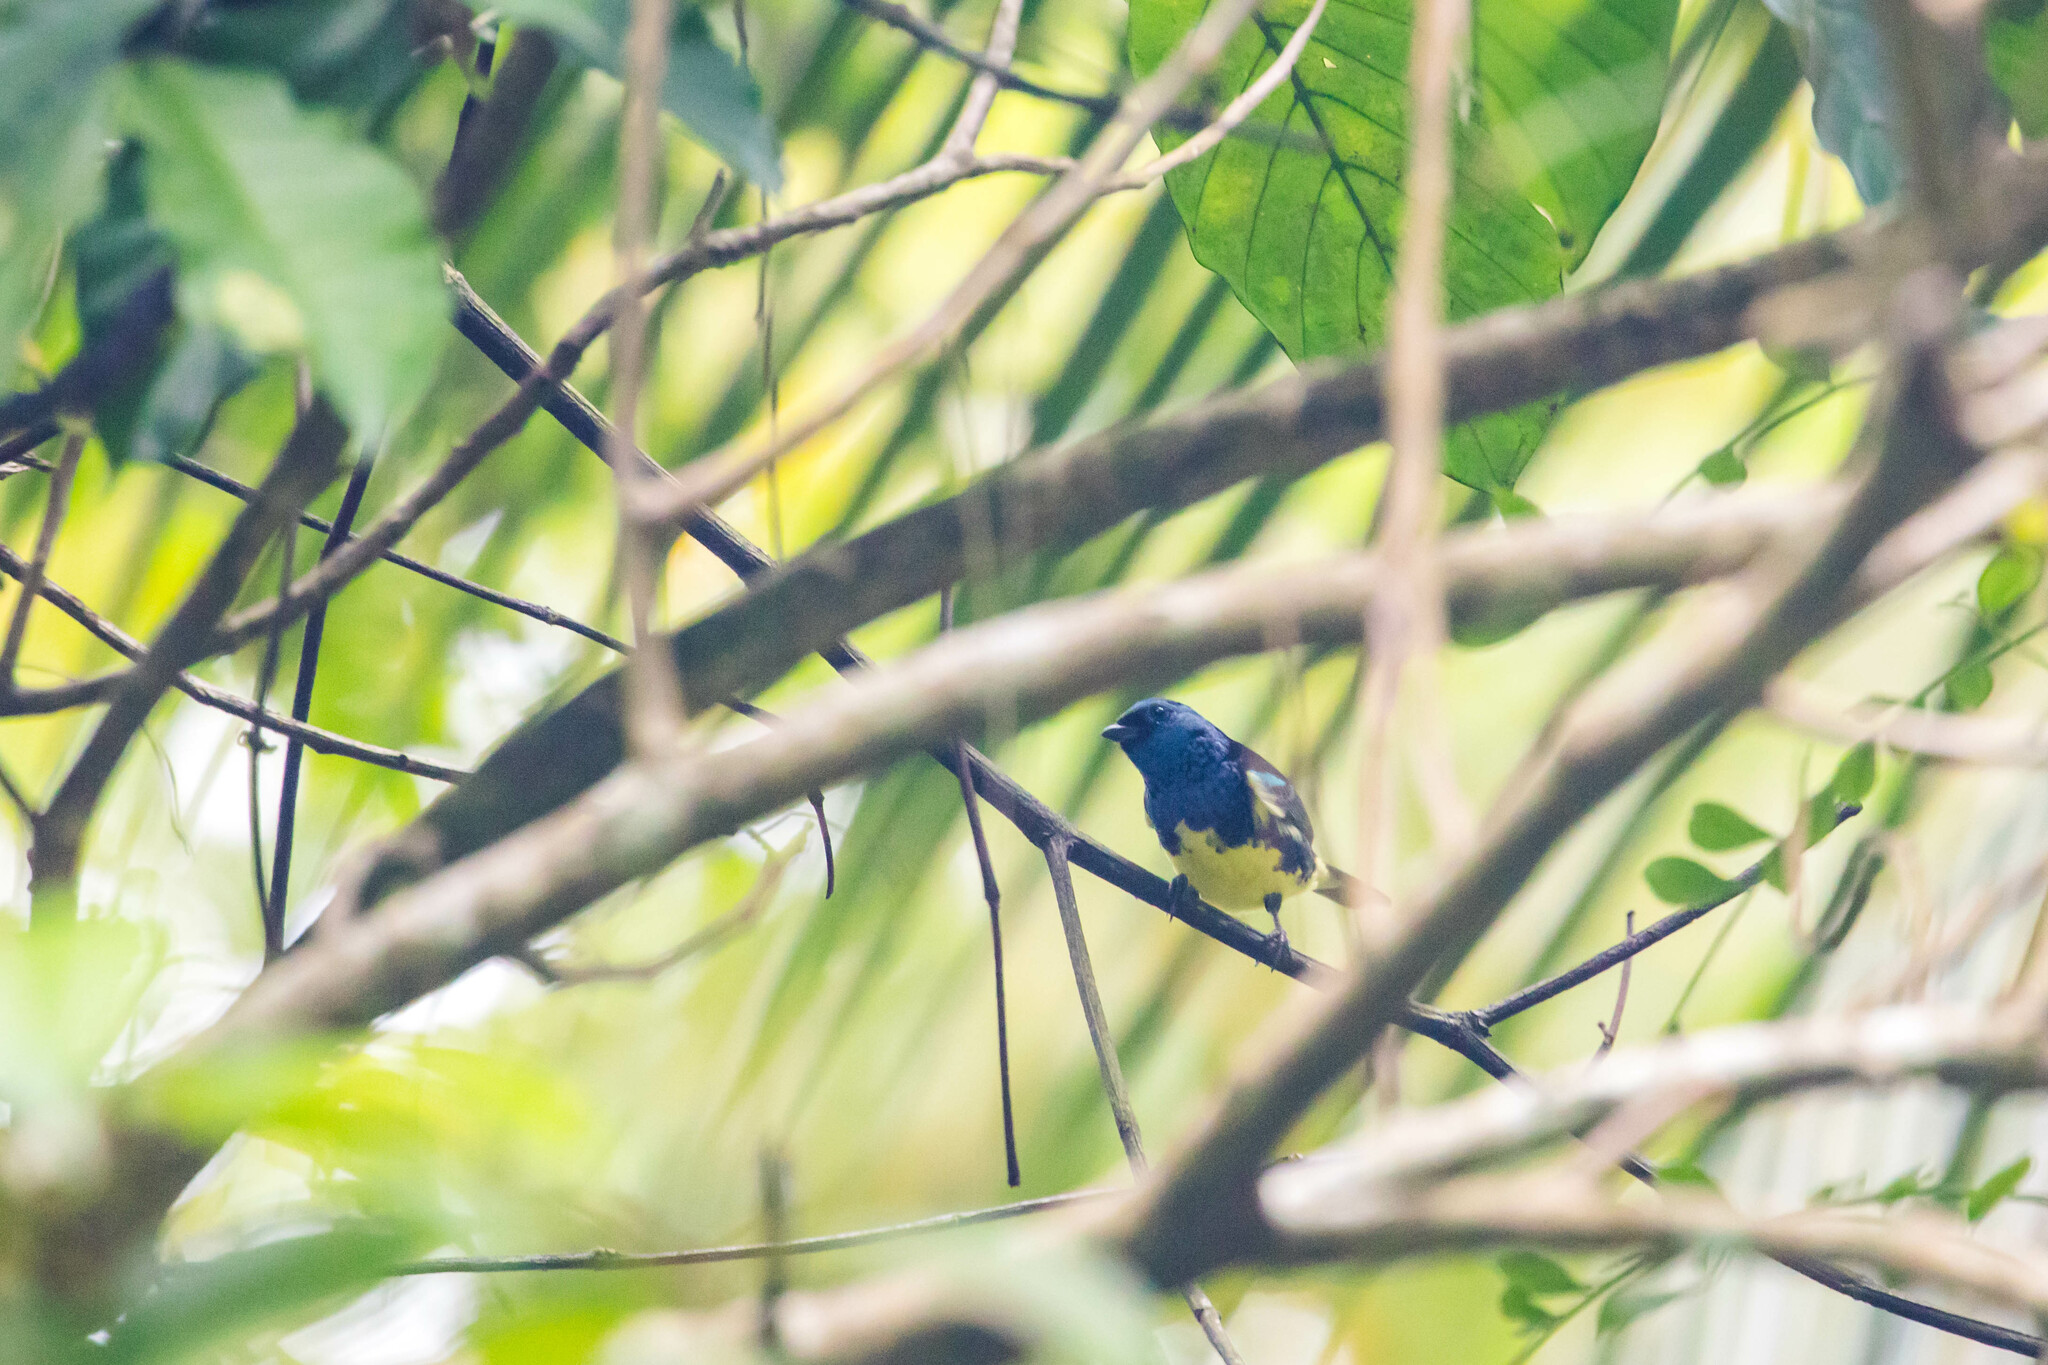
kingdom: Animalia
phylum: Chordata
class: Aves
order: Passeriformes
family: Thraupidae
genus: Tangara
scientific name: Tangara mexicana
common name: Turquoise tanager
